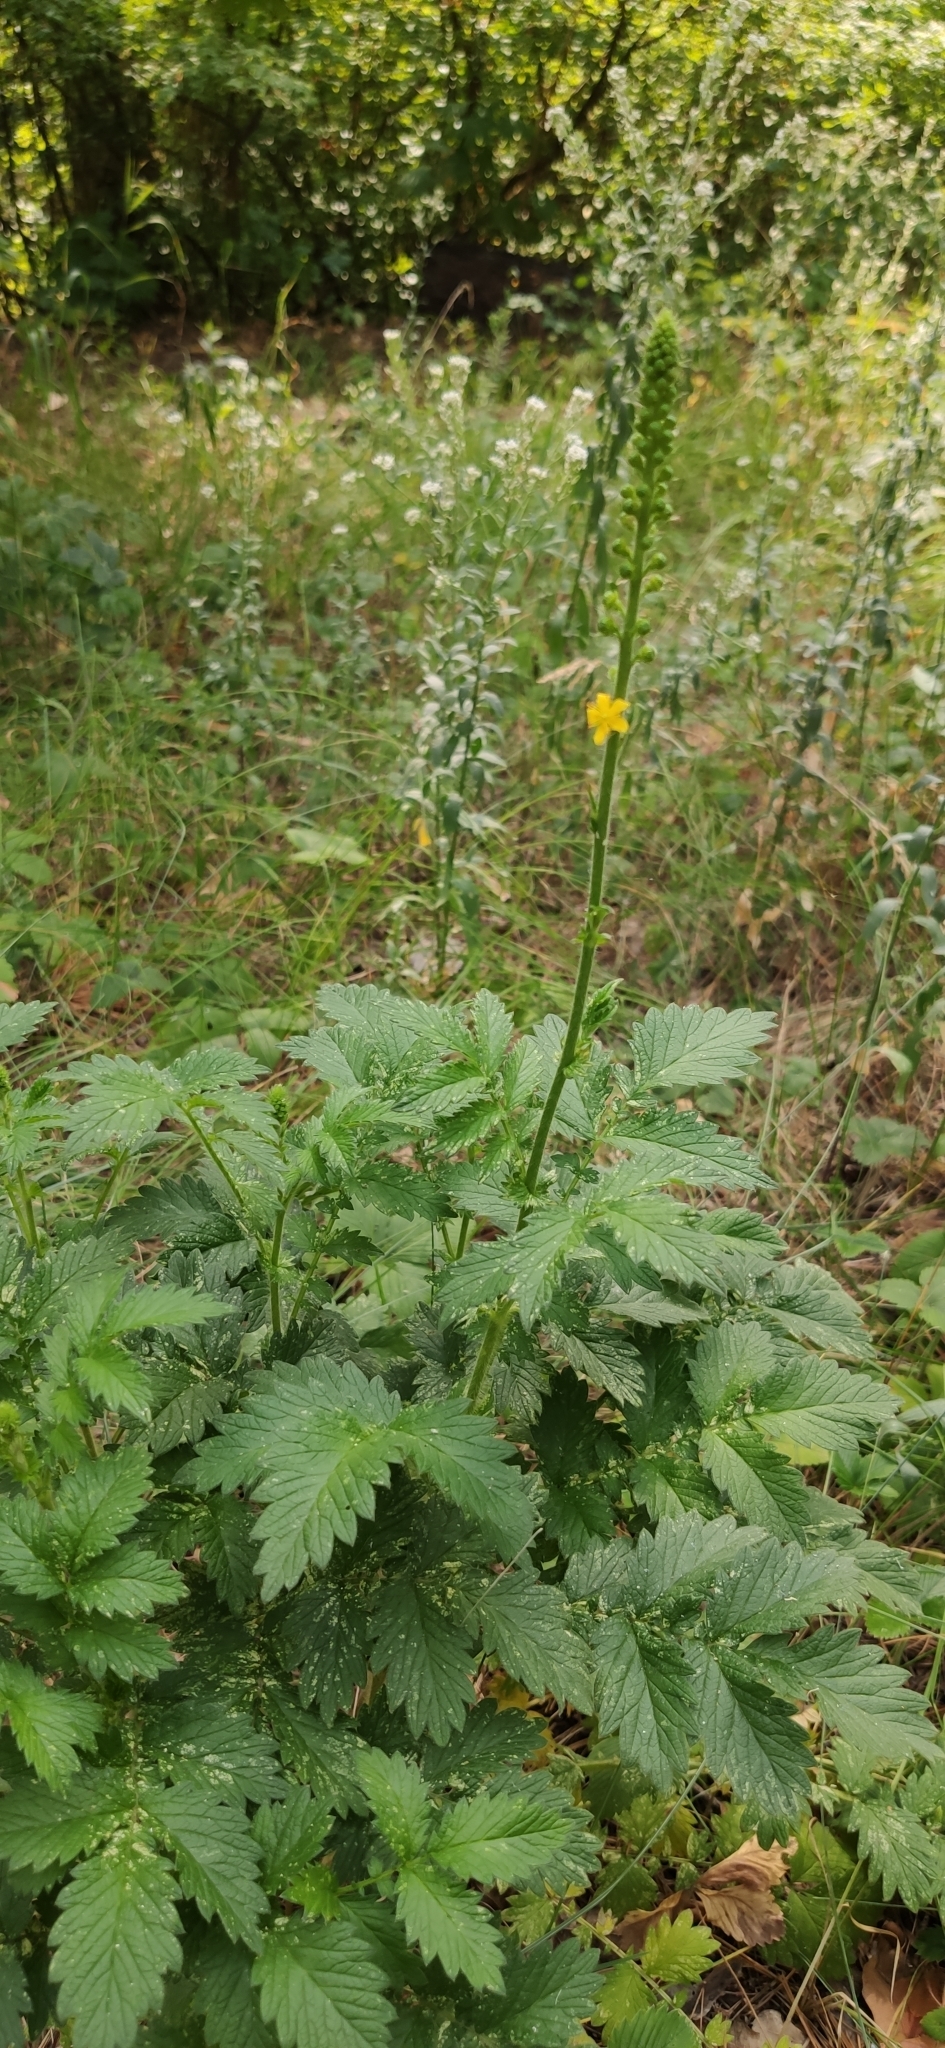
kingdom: Plantae
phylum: Tracheophyta
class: Magnoliopsida
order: Rosales
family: Rosaceae
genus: Agrimonia
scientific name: Agrimonia eupatoria
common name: Agrimony
